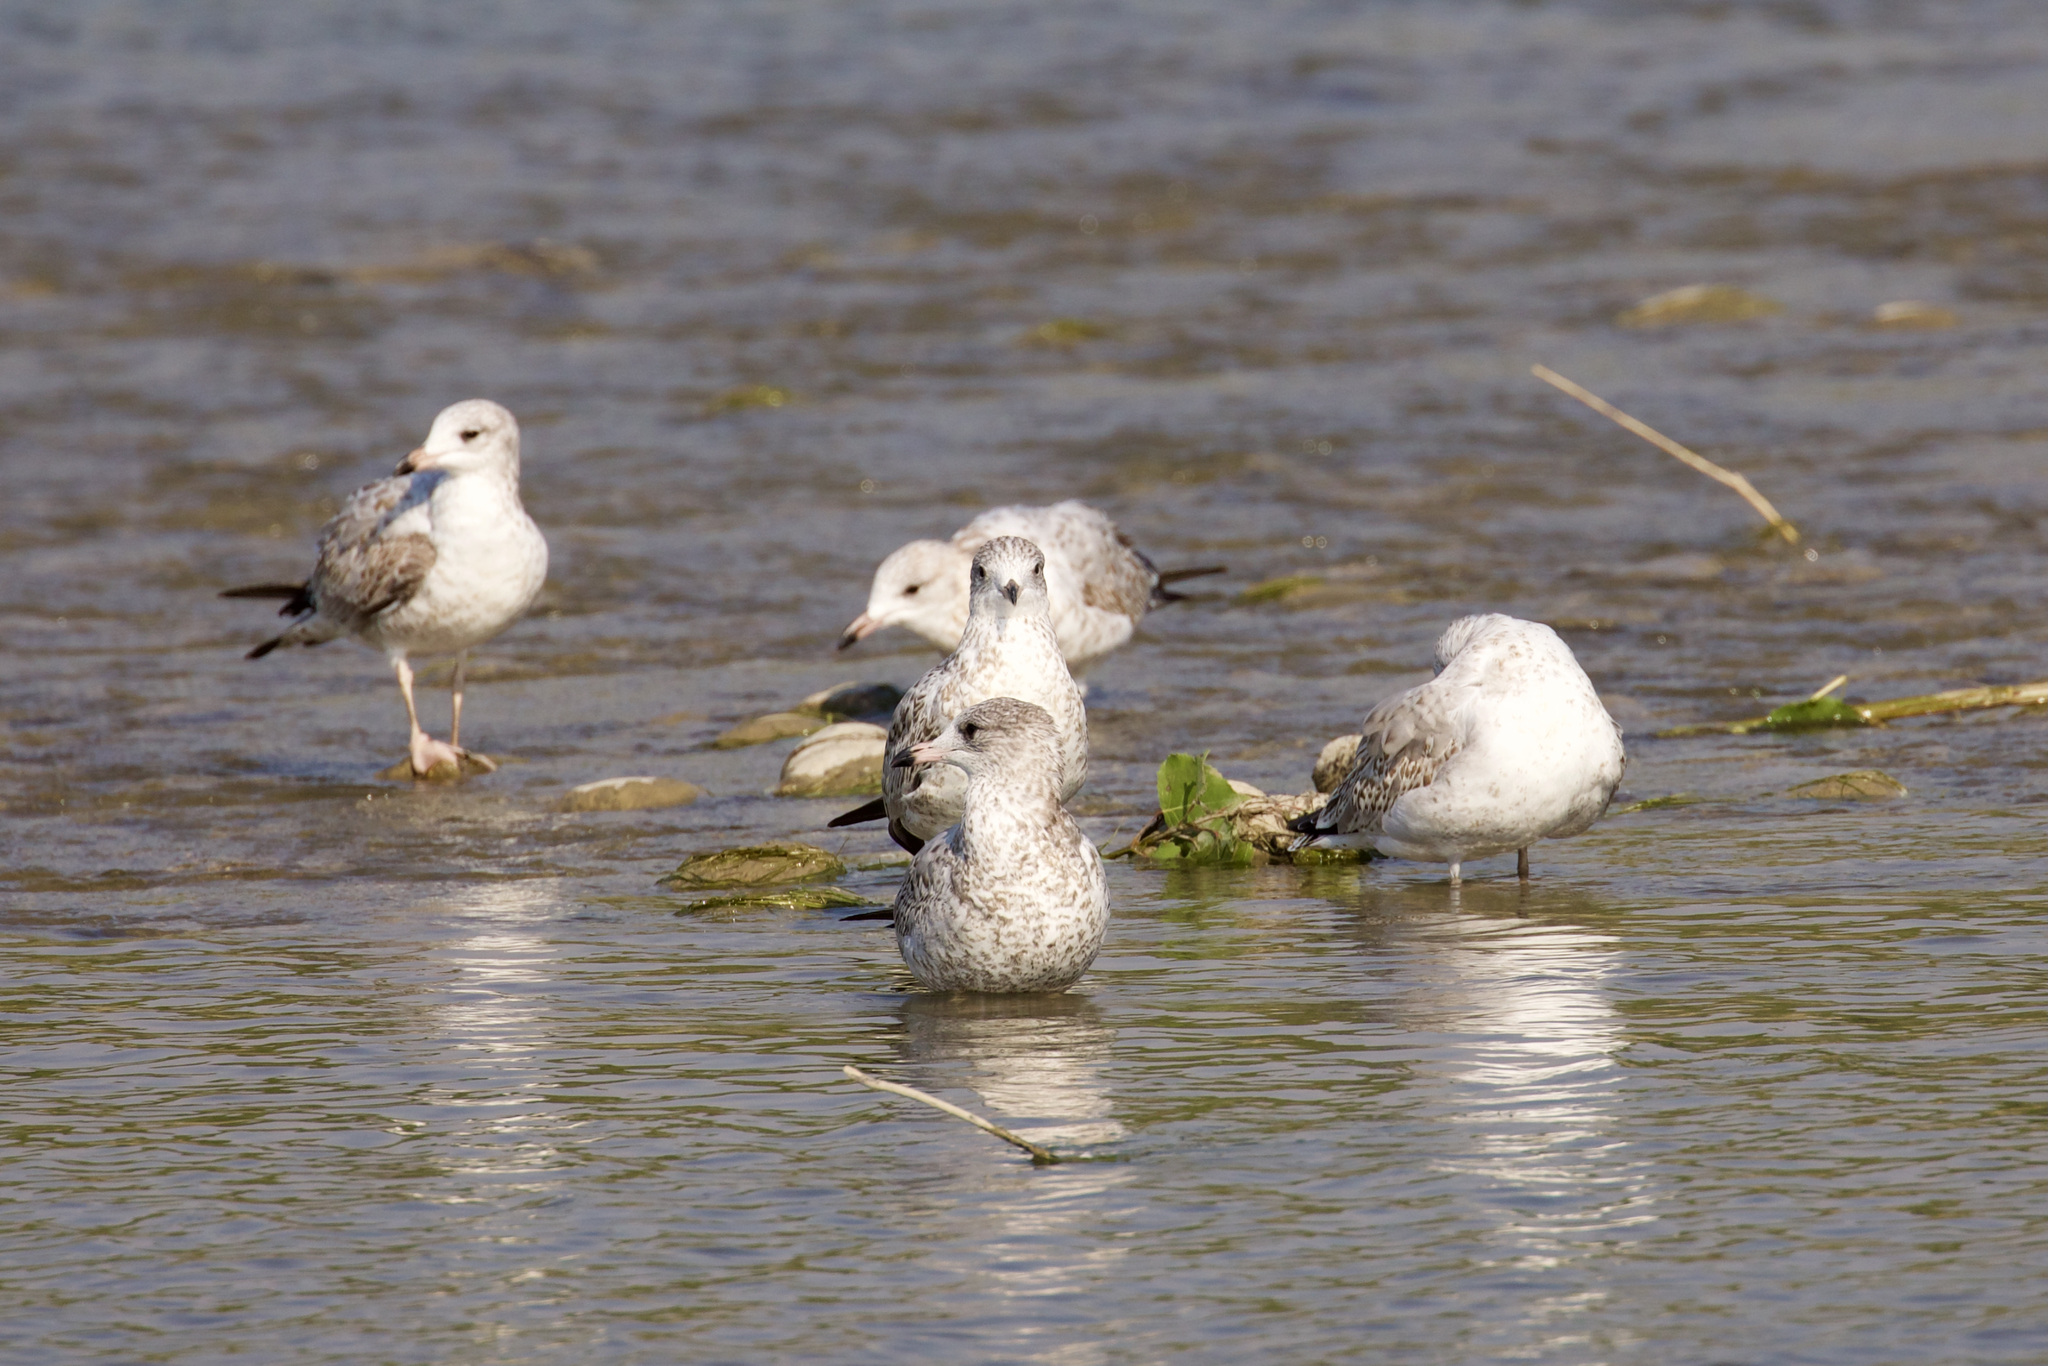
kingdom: Animalia
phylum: Chordata
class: Aves
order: Charadriiformes
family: Laridae
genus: Larus
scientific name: Larus delawarensis
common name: Ring-billed gull
